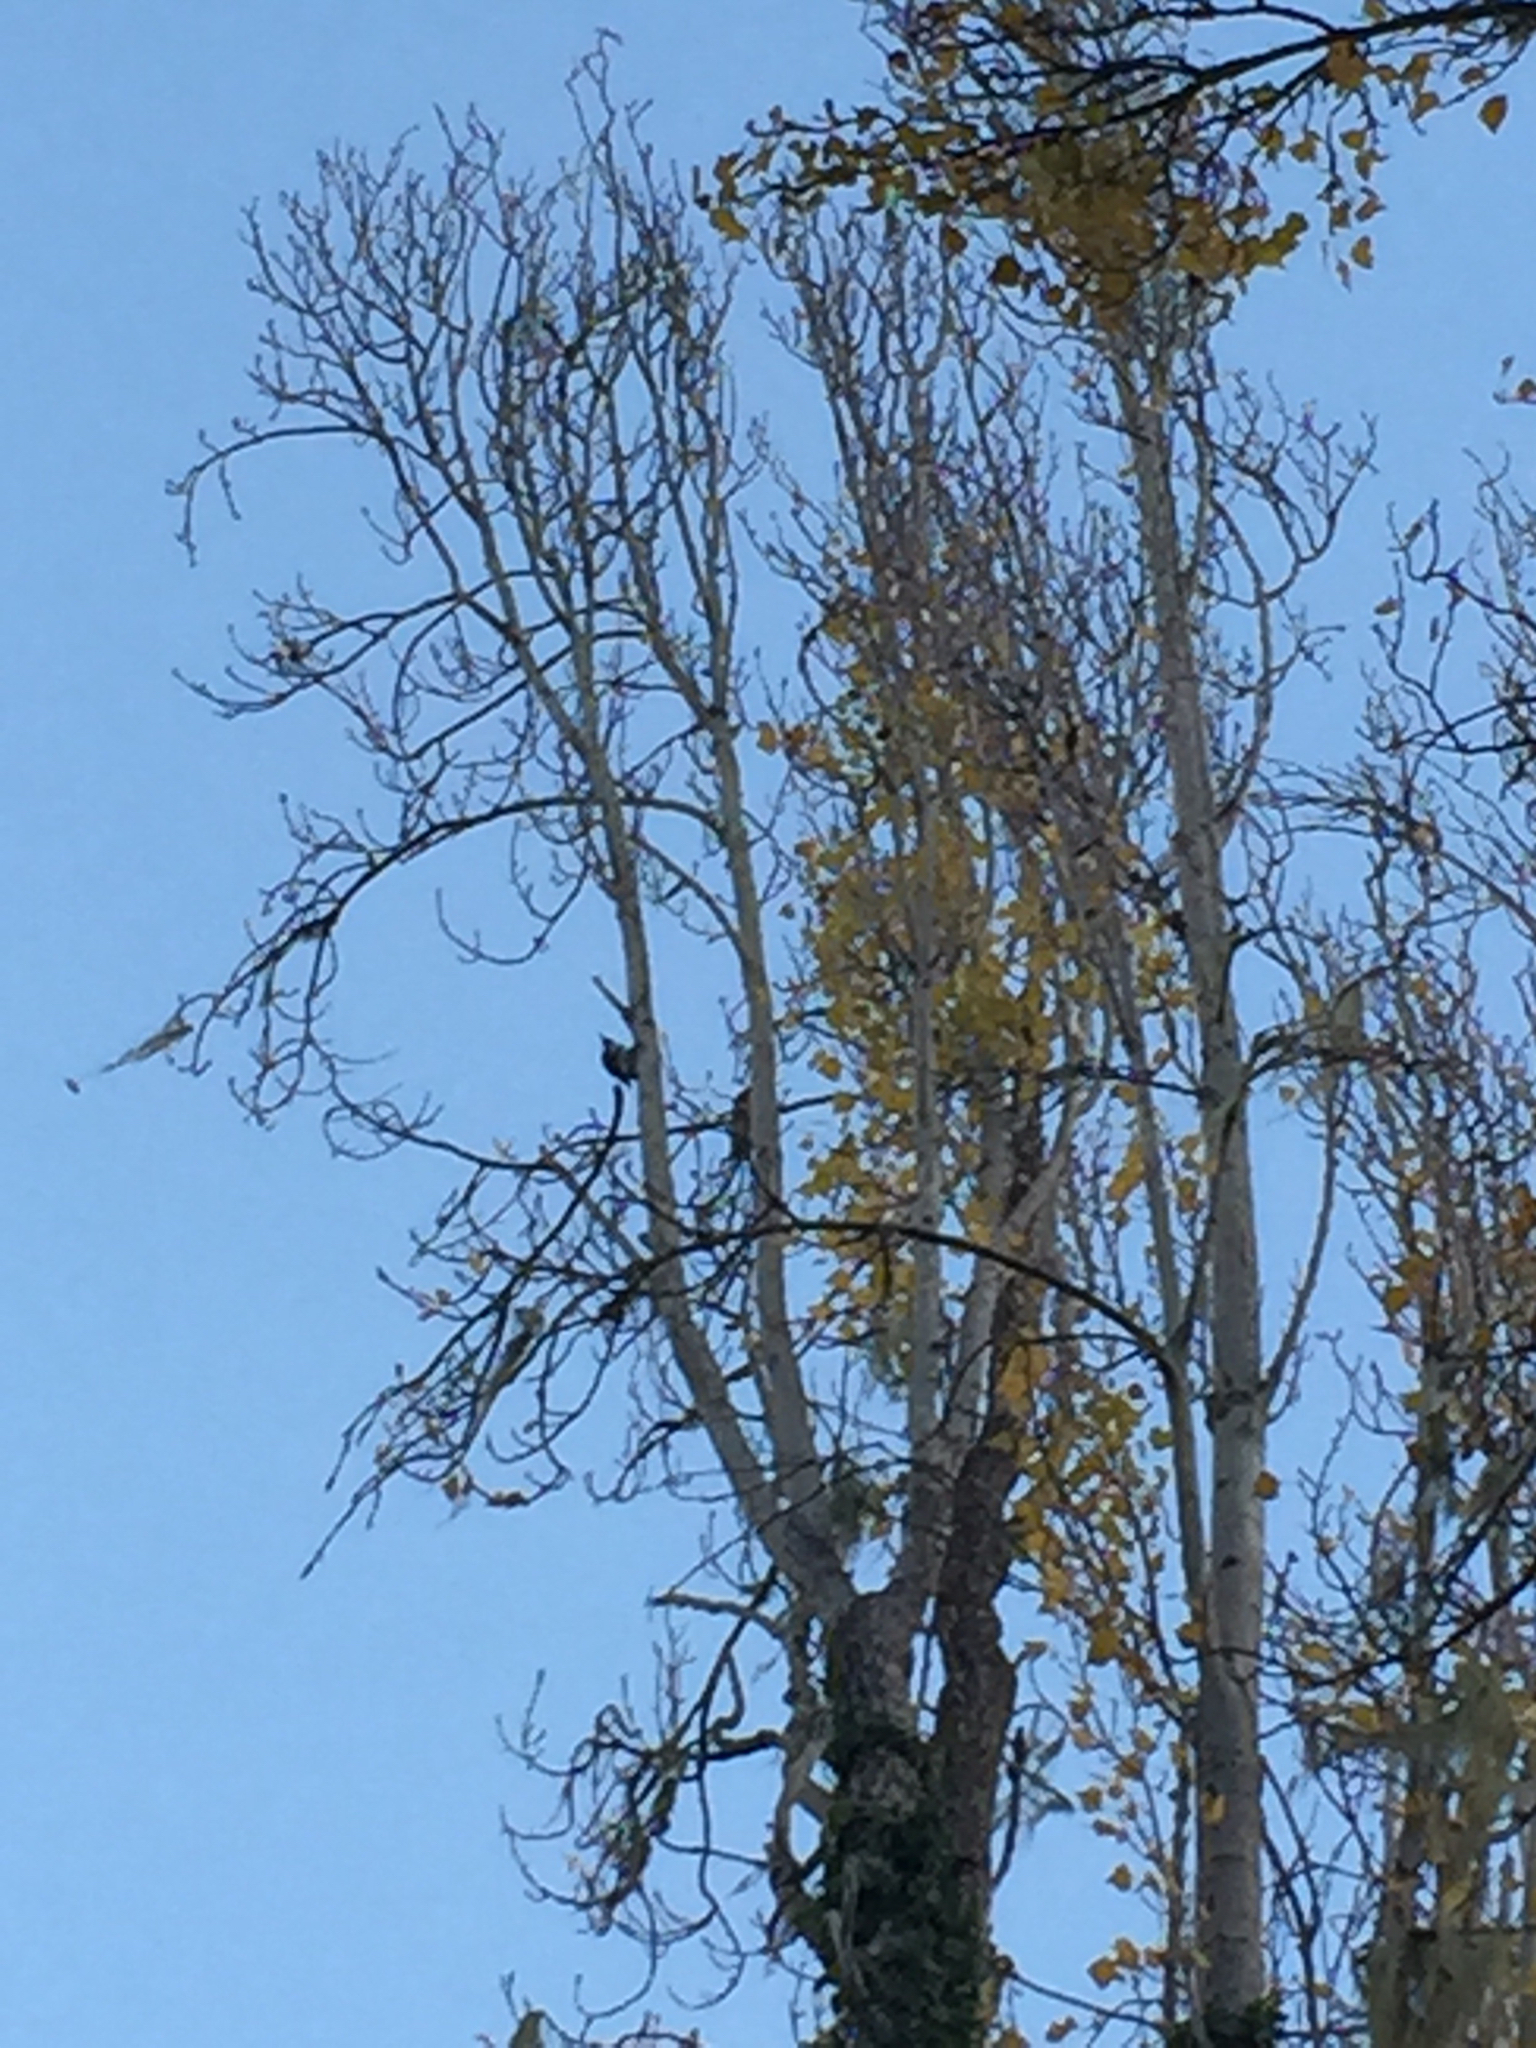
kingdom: Animalia
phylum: Chordata
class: Aves
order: Piciformes
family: Picidae
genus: Melanerpes
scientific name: Melanerpes formicivorus
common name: Acorn woodpecker
